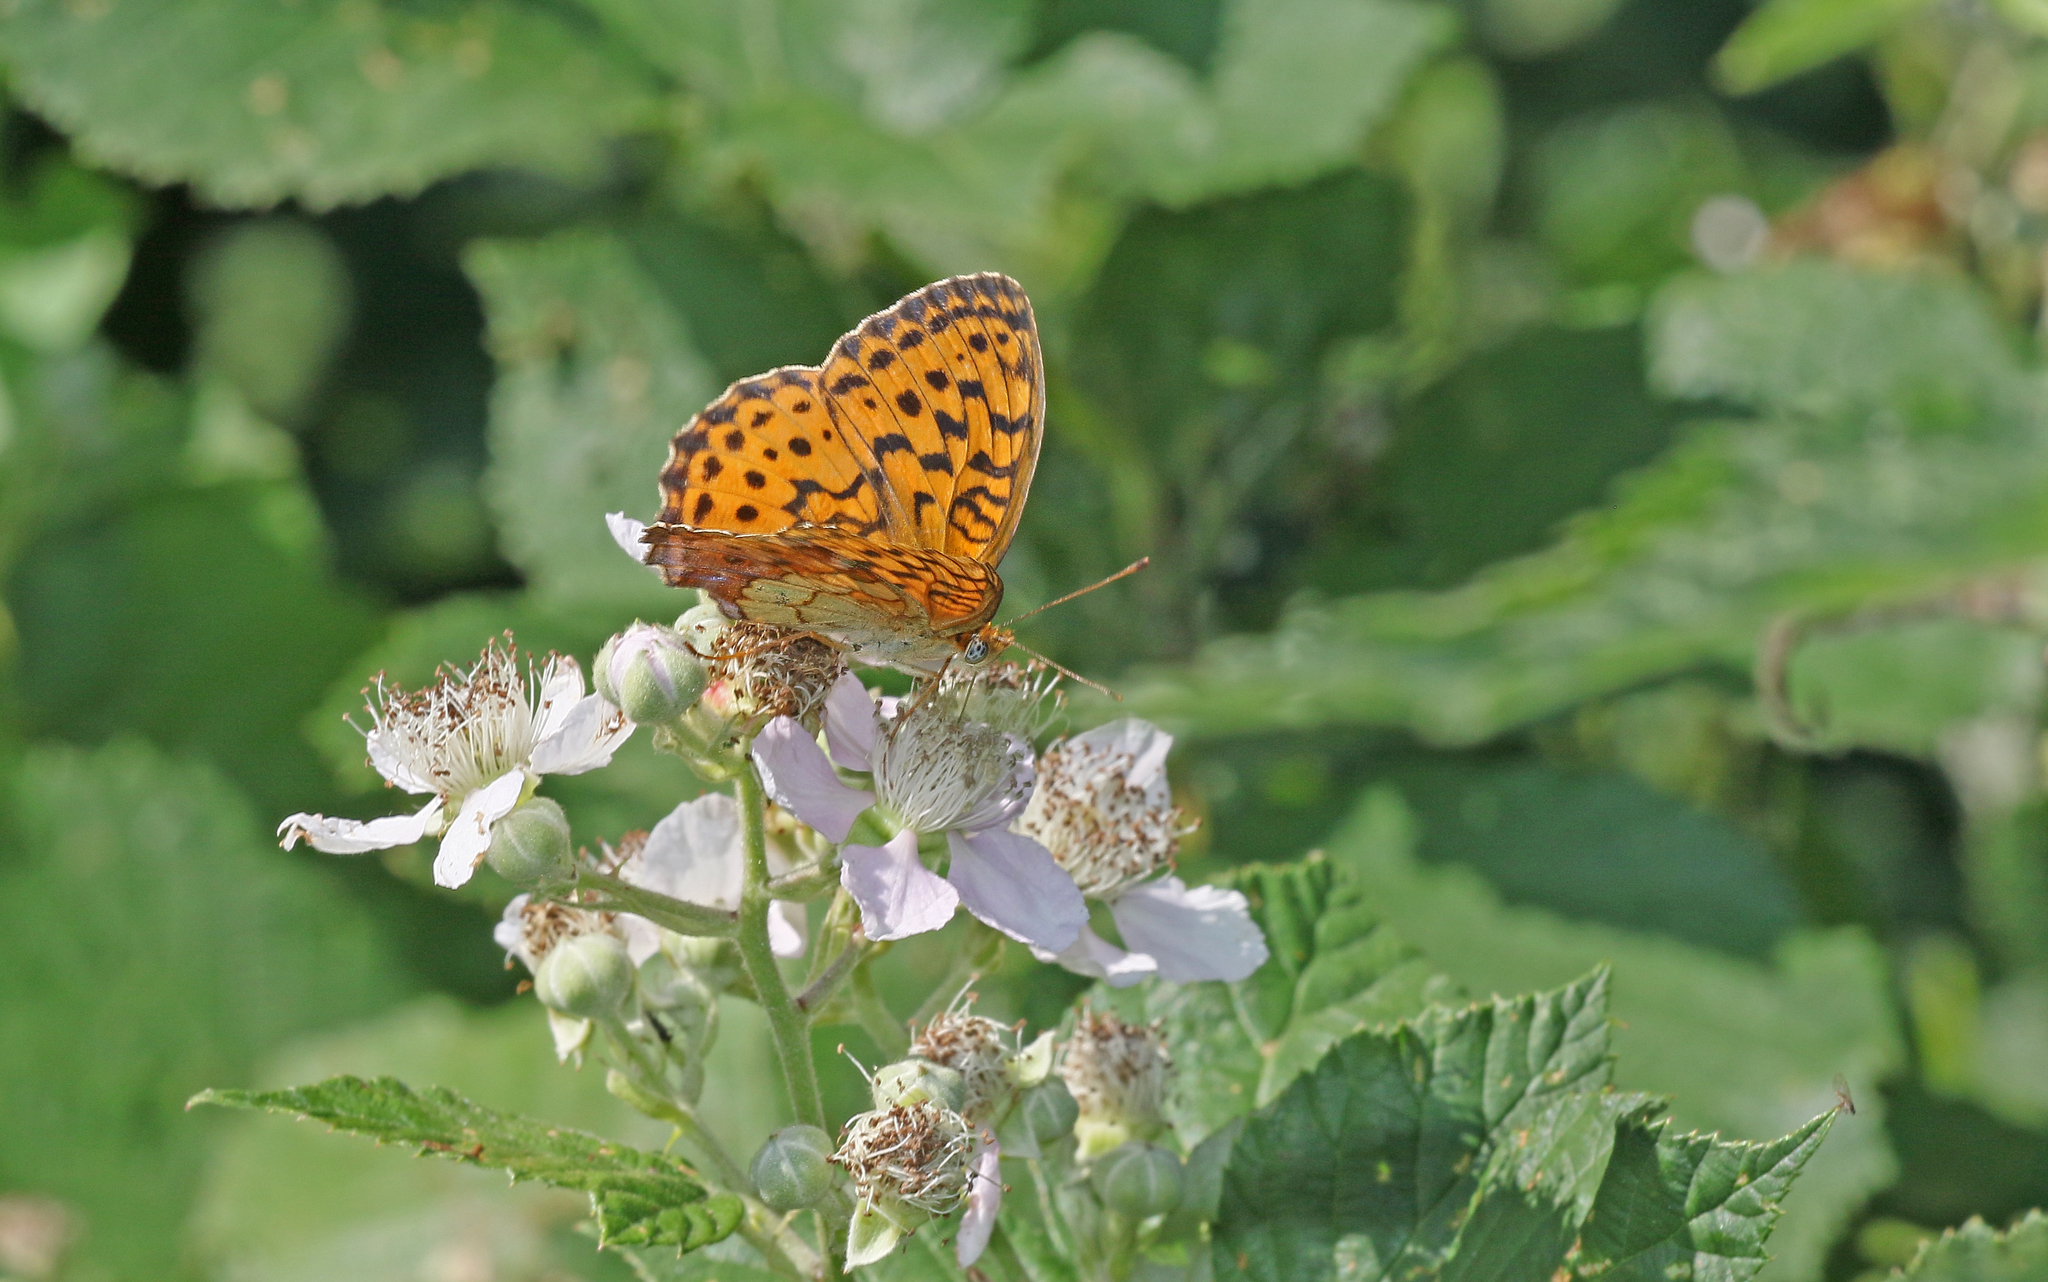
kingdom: Animalia
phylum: Arthropoda
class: Insecta
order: Lepidoptera
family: Nymphalidae
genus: Brenthis
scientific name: Brenthis daphne
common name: Marbled fritillary
